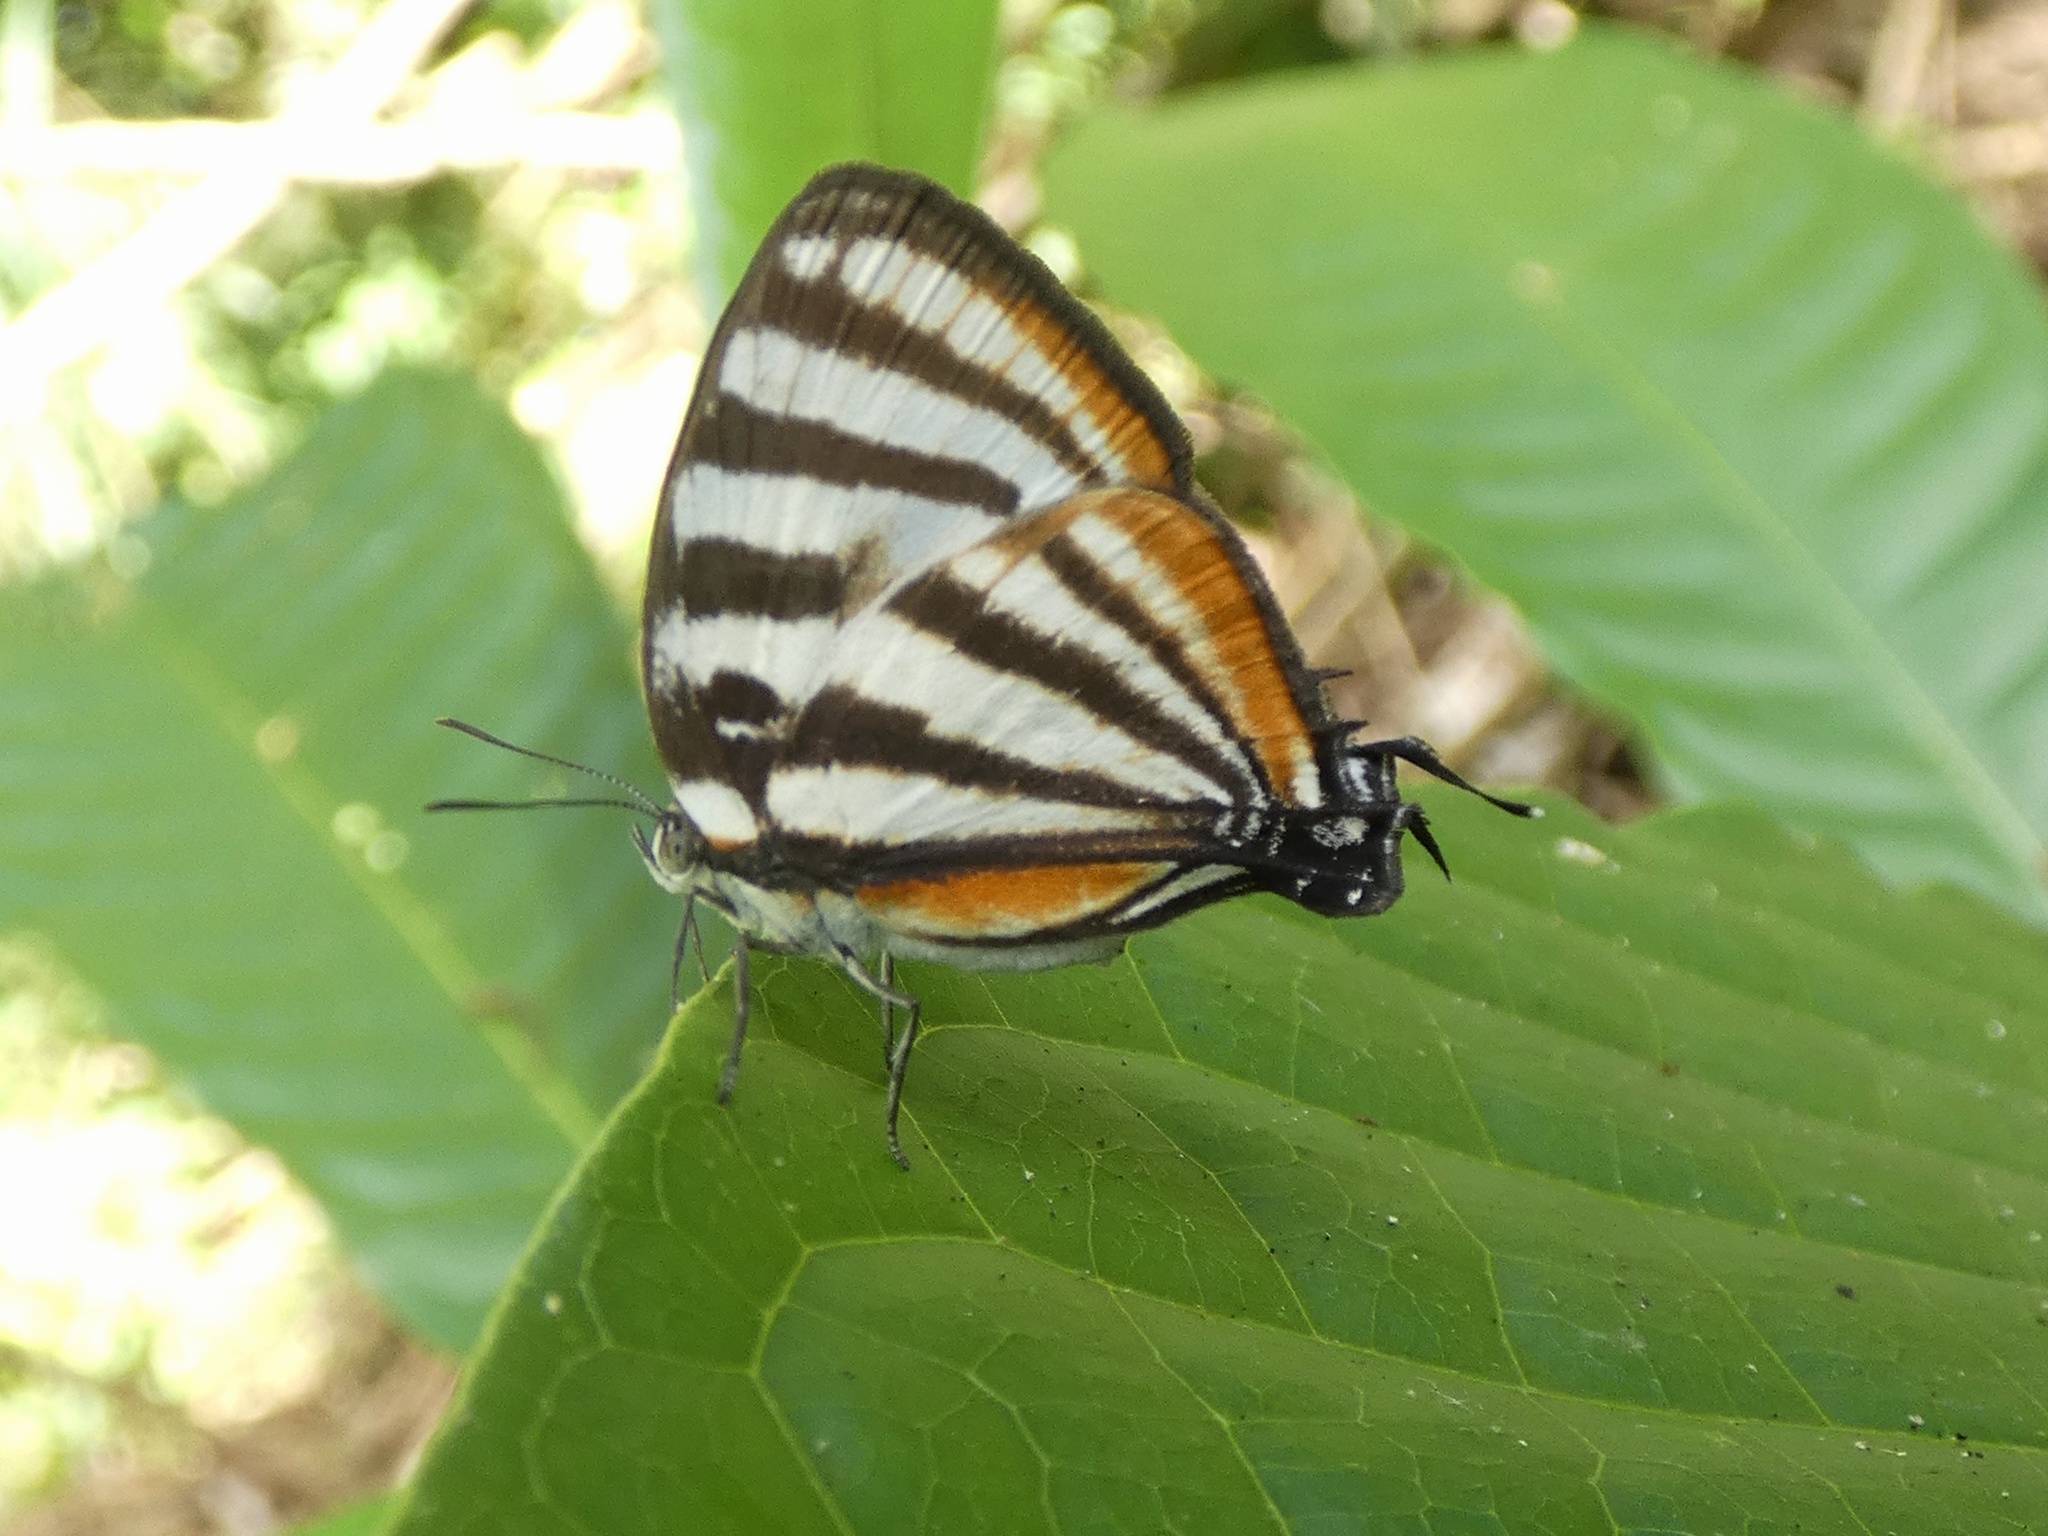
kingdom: Animalia
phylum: Arthropoda
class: Insecta
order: Lepidoptera
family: Lycaenidae
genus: Arawacus
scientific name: Arawacus lincoides
